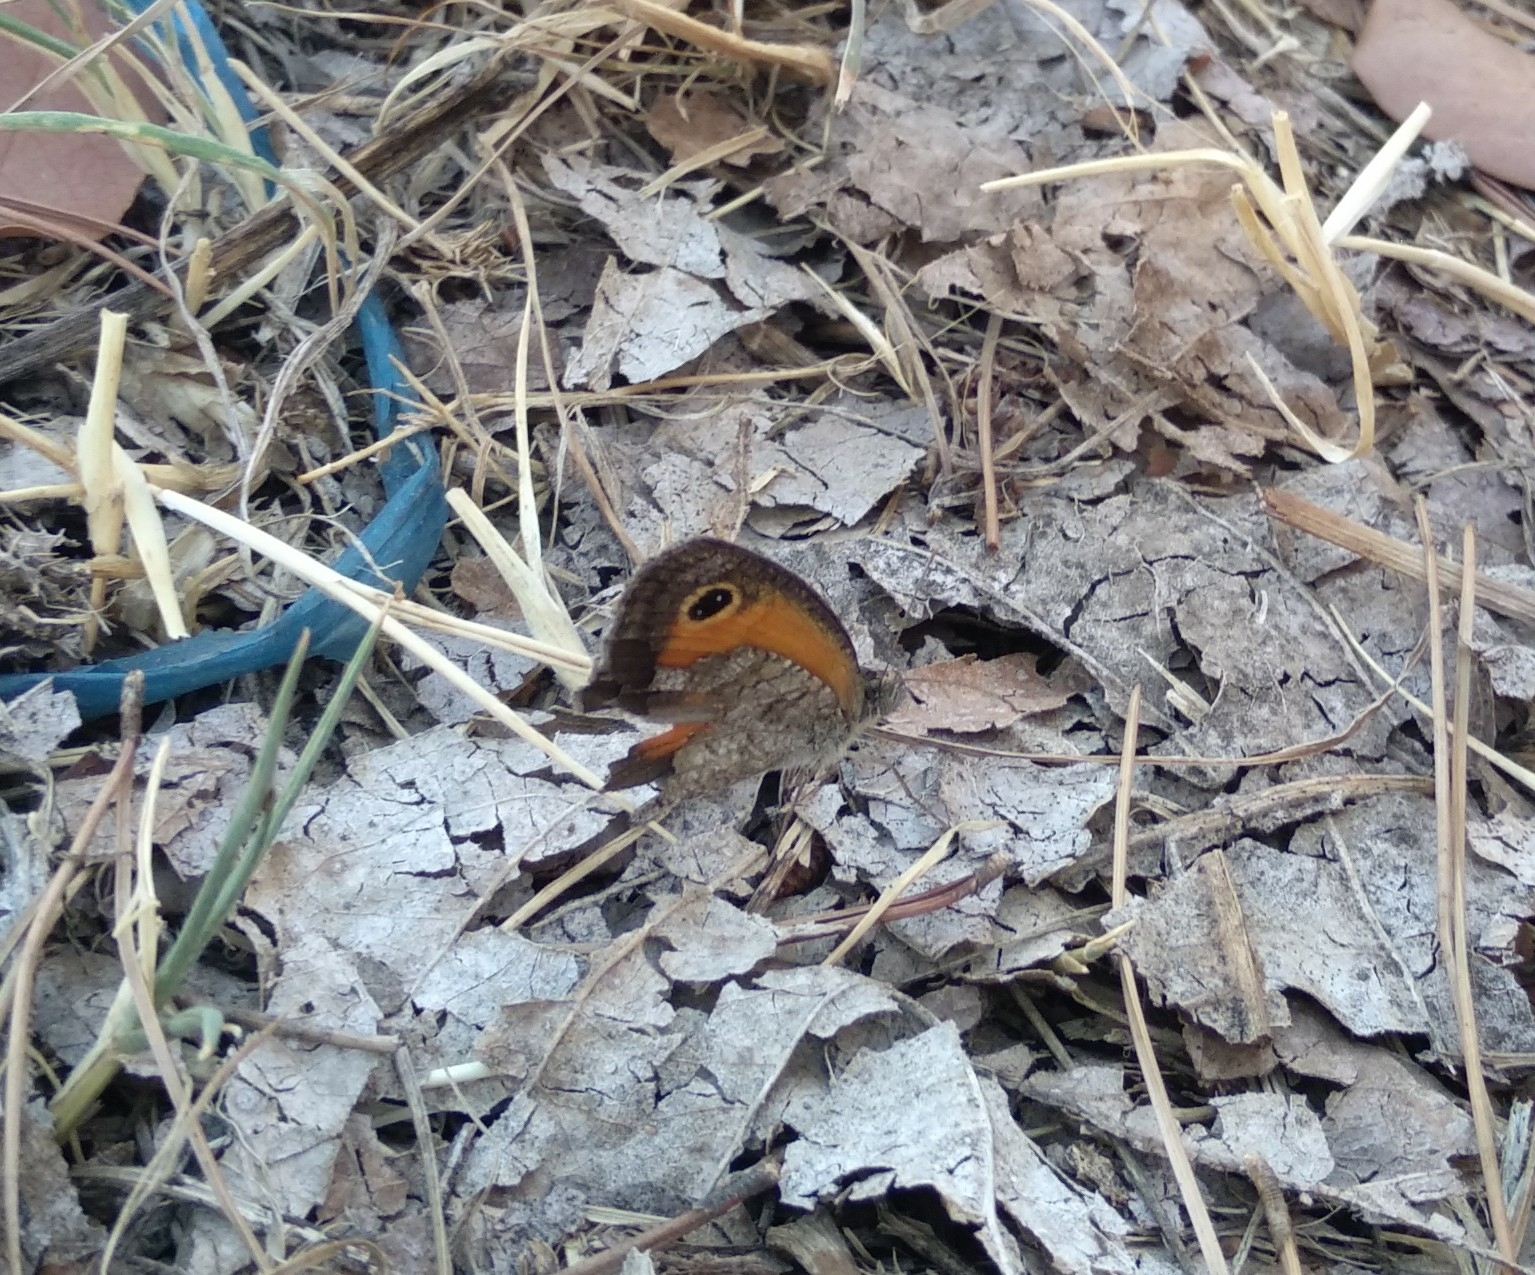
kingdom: Animalia
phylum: Arthropoda
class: Insecta
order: Lepidoptera
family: Nymphalidae
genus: Pyronia
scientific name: Pyronia cecilia
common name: Southern gatekeeper
